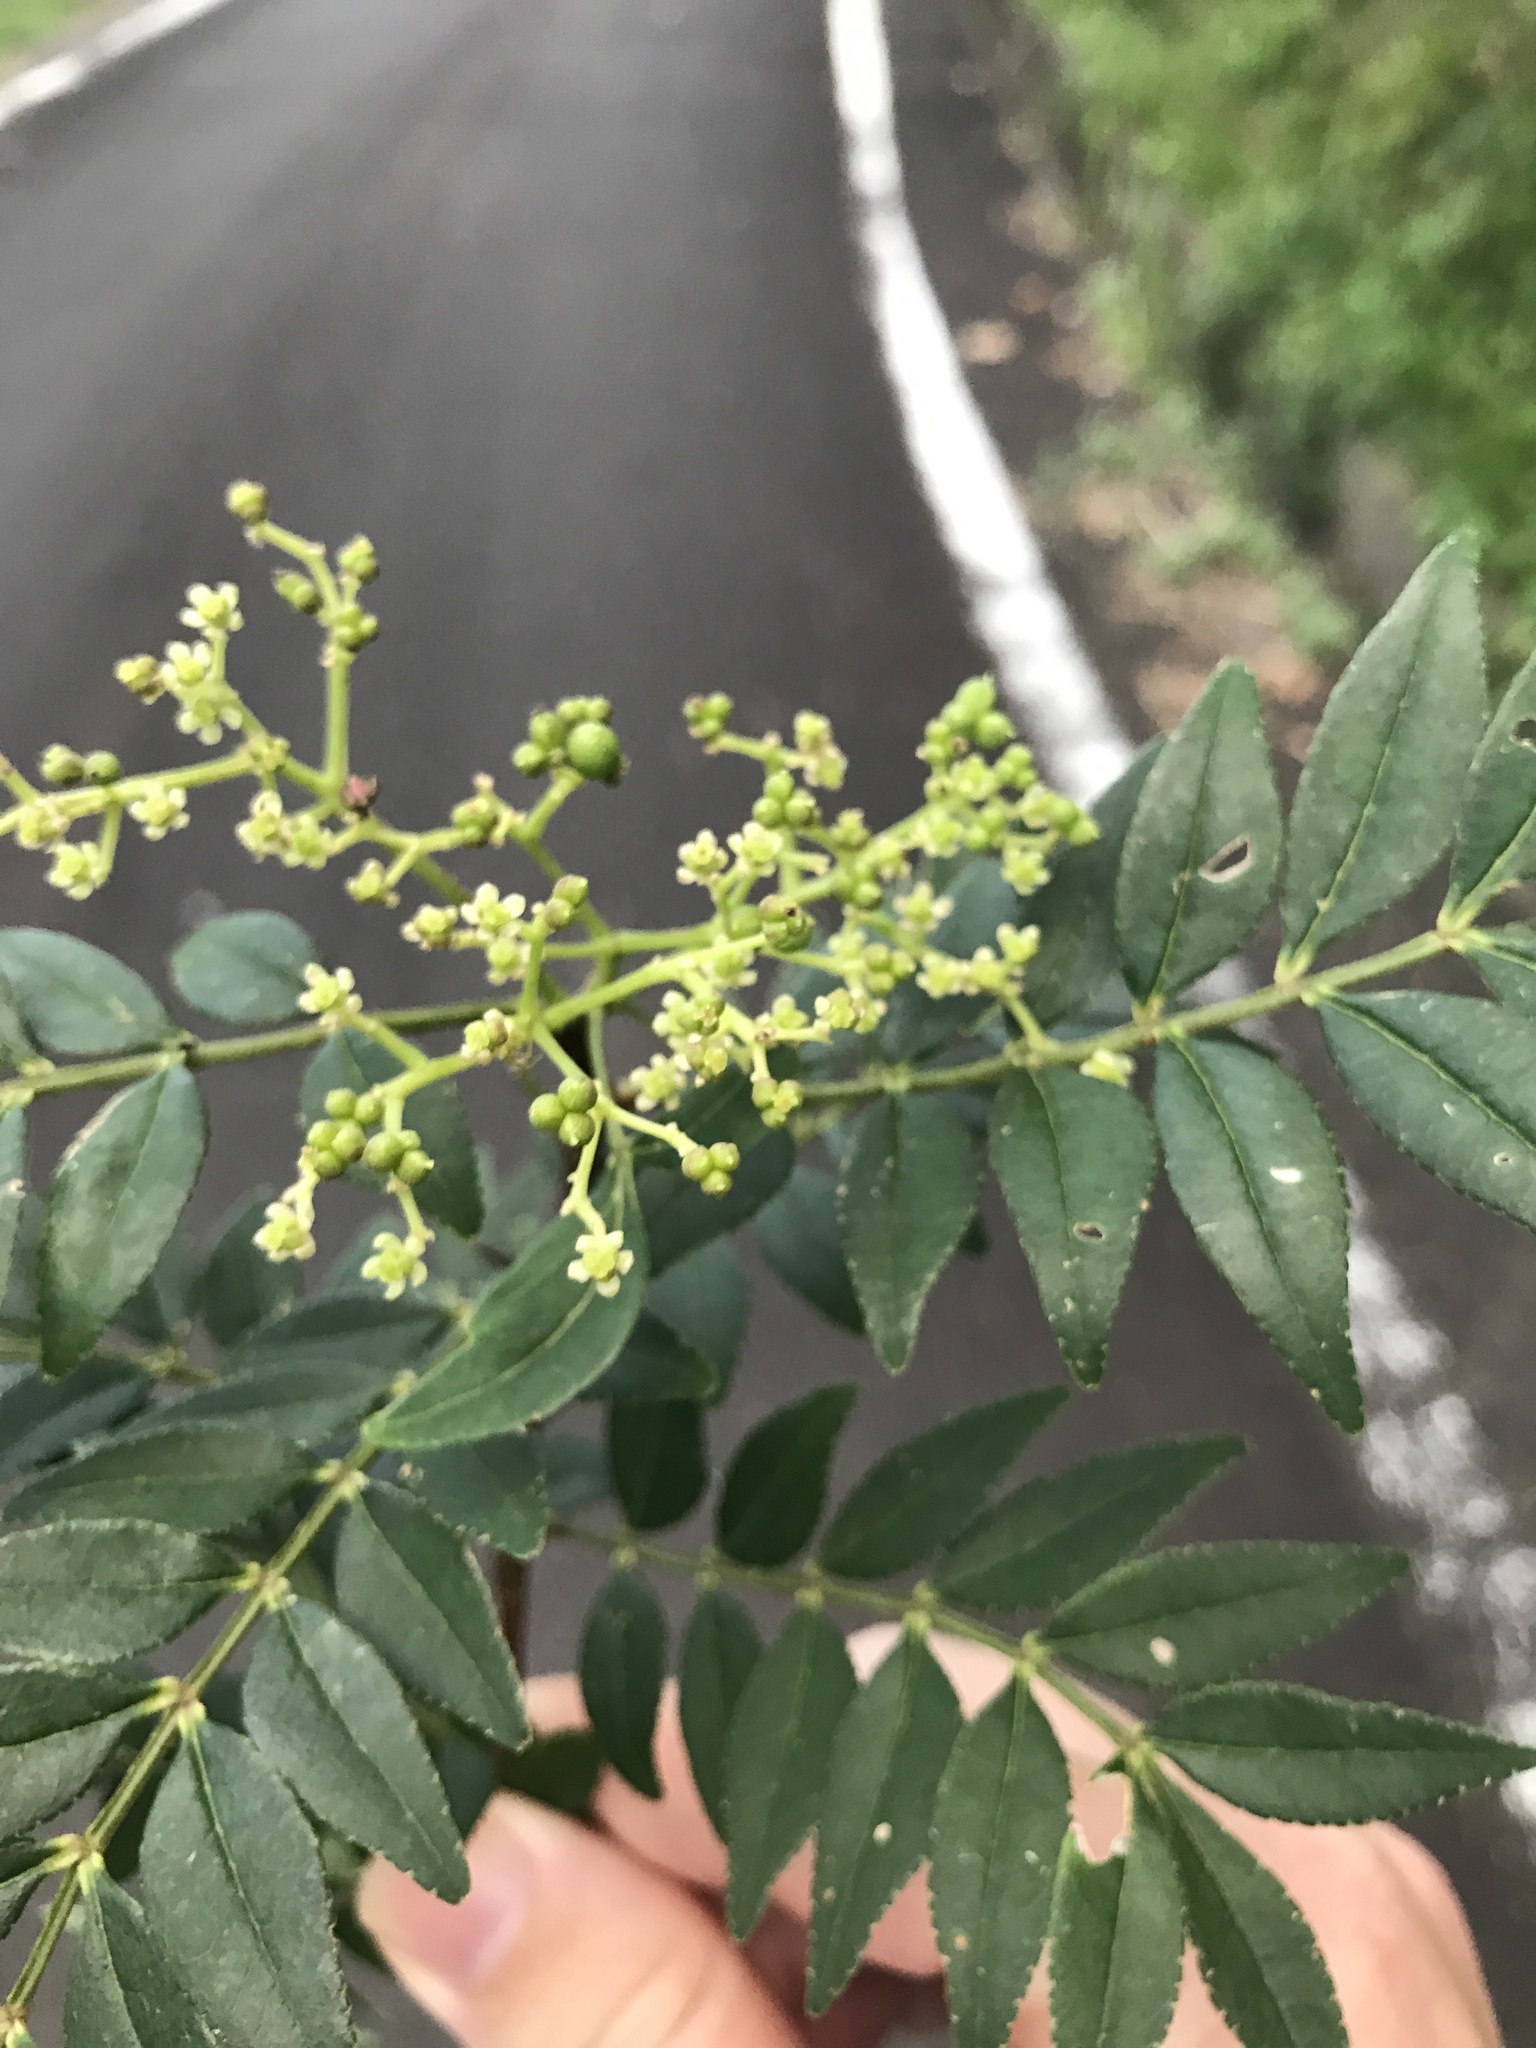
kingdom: Plantae
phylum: Tracheophyta
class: Magnoliopsida
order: Sapindales
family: Rutaceae
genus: Zanthoxylum
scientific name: Zanthoxylum schinifolium
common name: Sichuan-pepper
